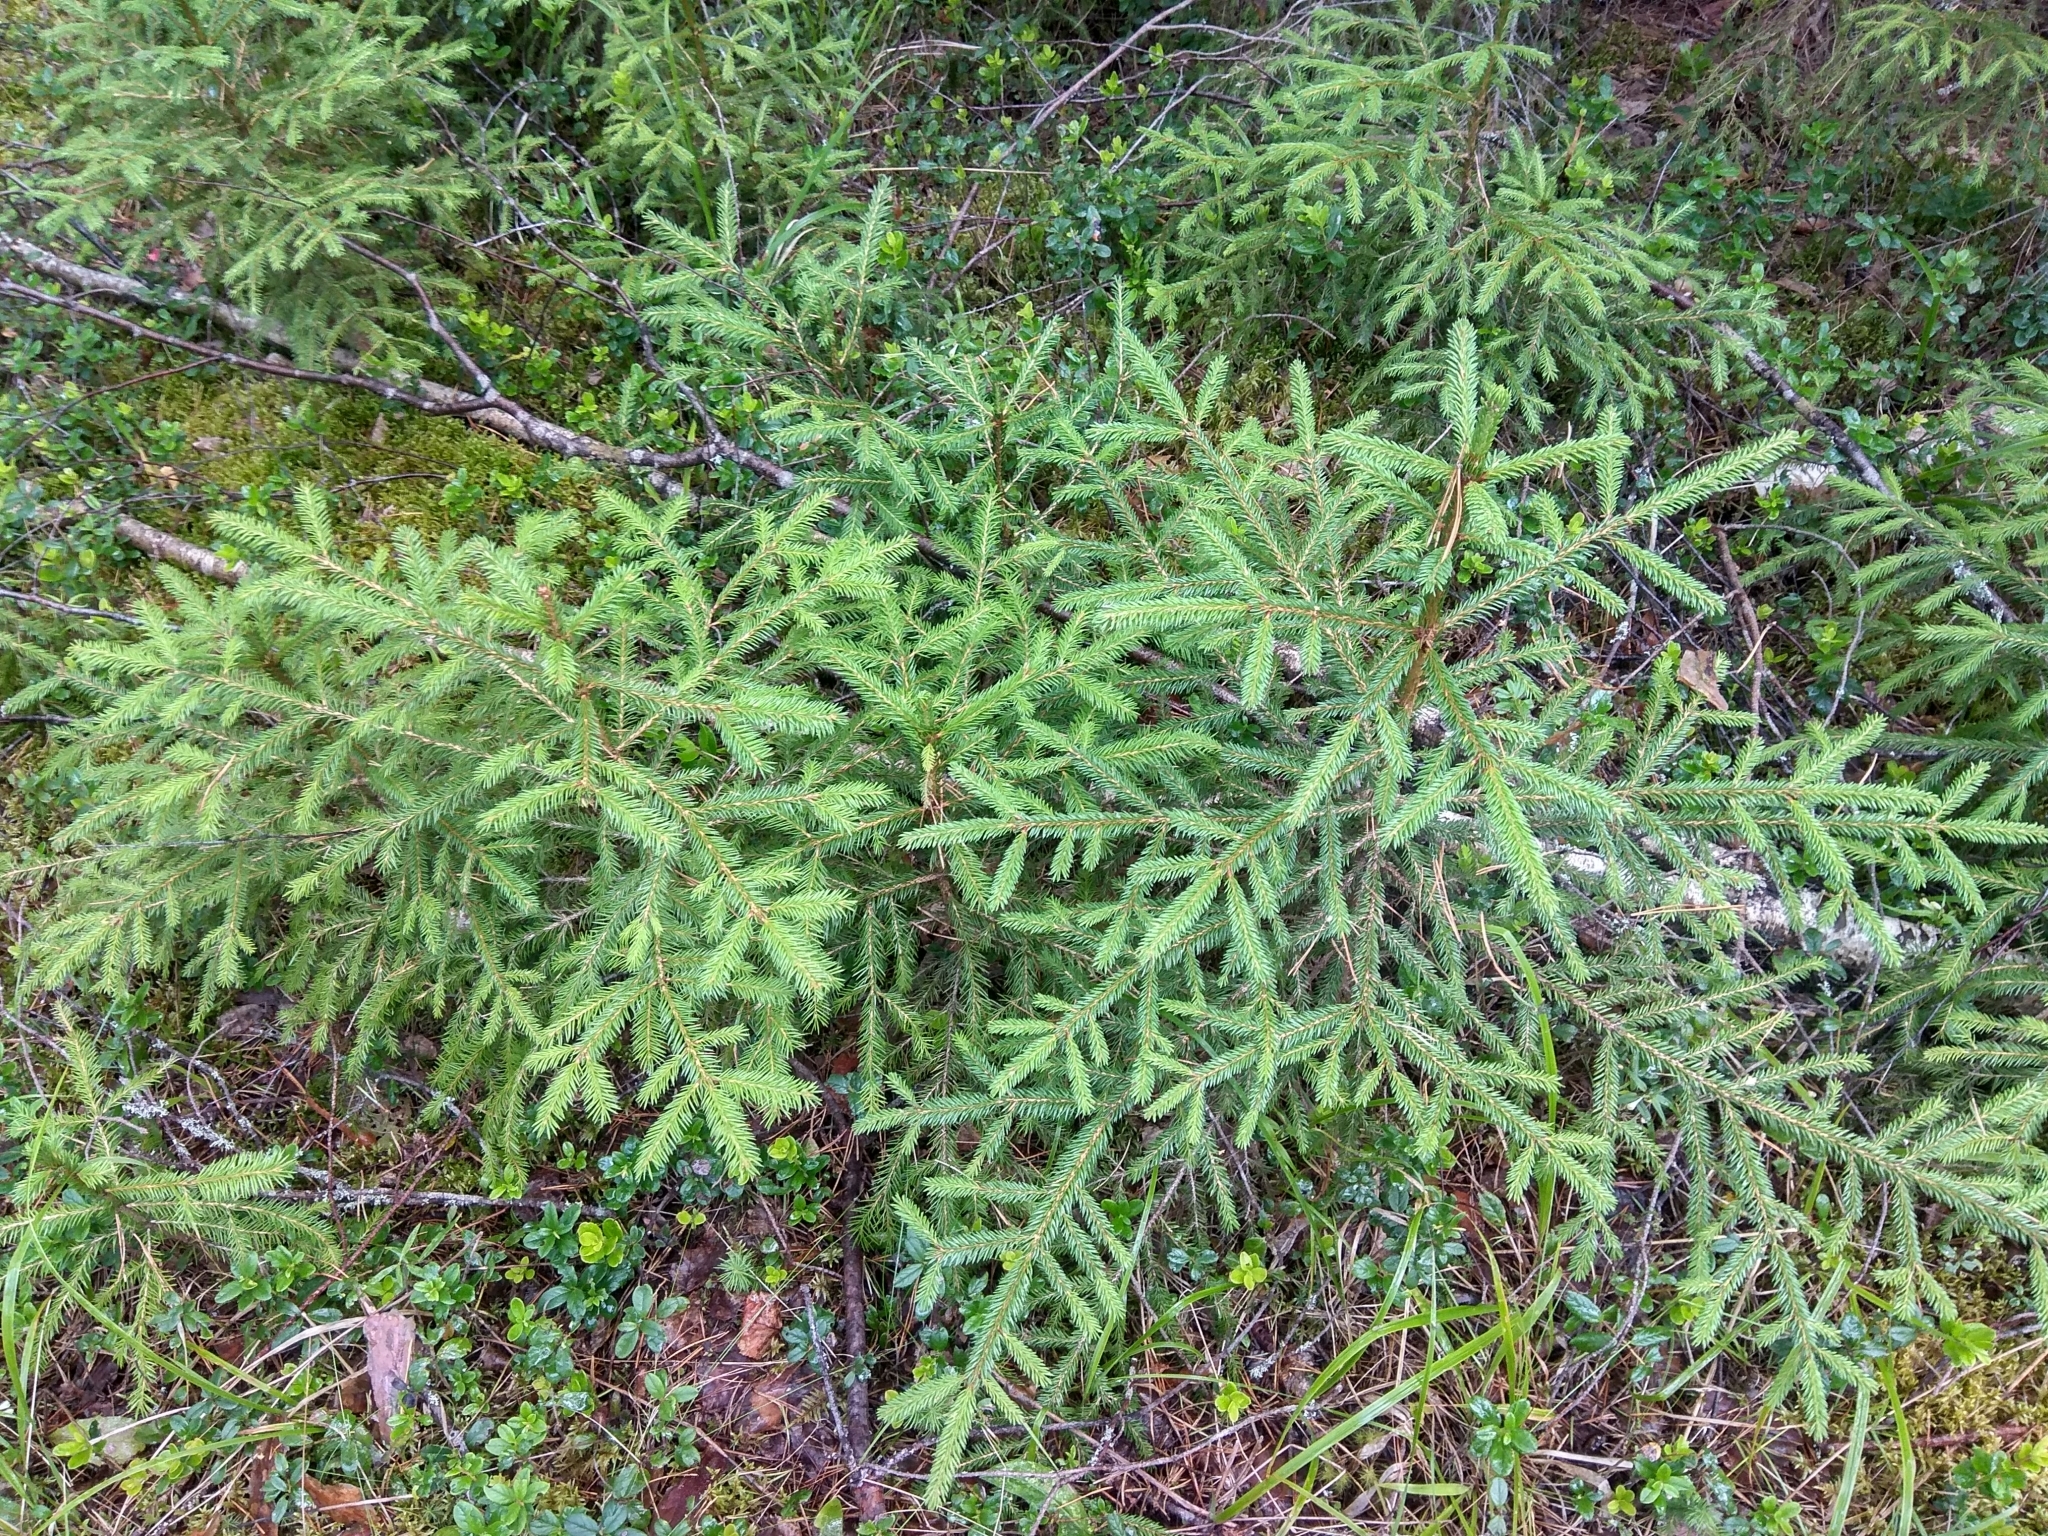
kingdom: Plantae
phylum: Tracheophyta
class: Pinopsida
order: Pinales
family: Pinaceae
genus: Picea
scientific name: Picea abies
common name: Norway spruce
